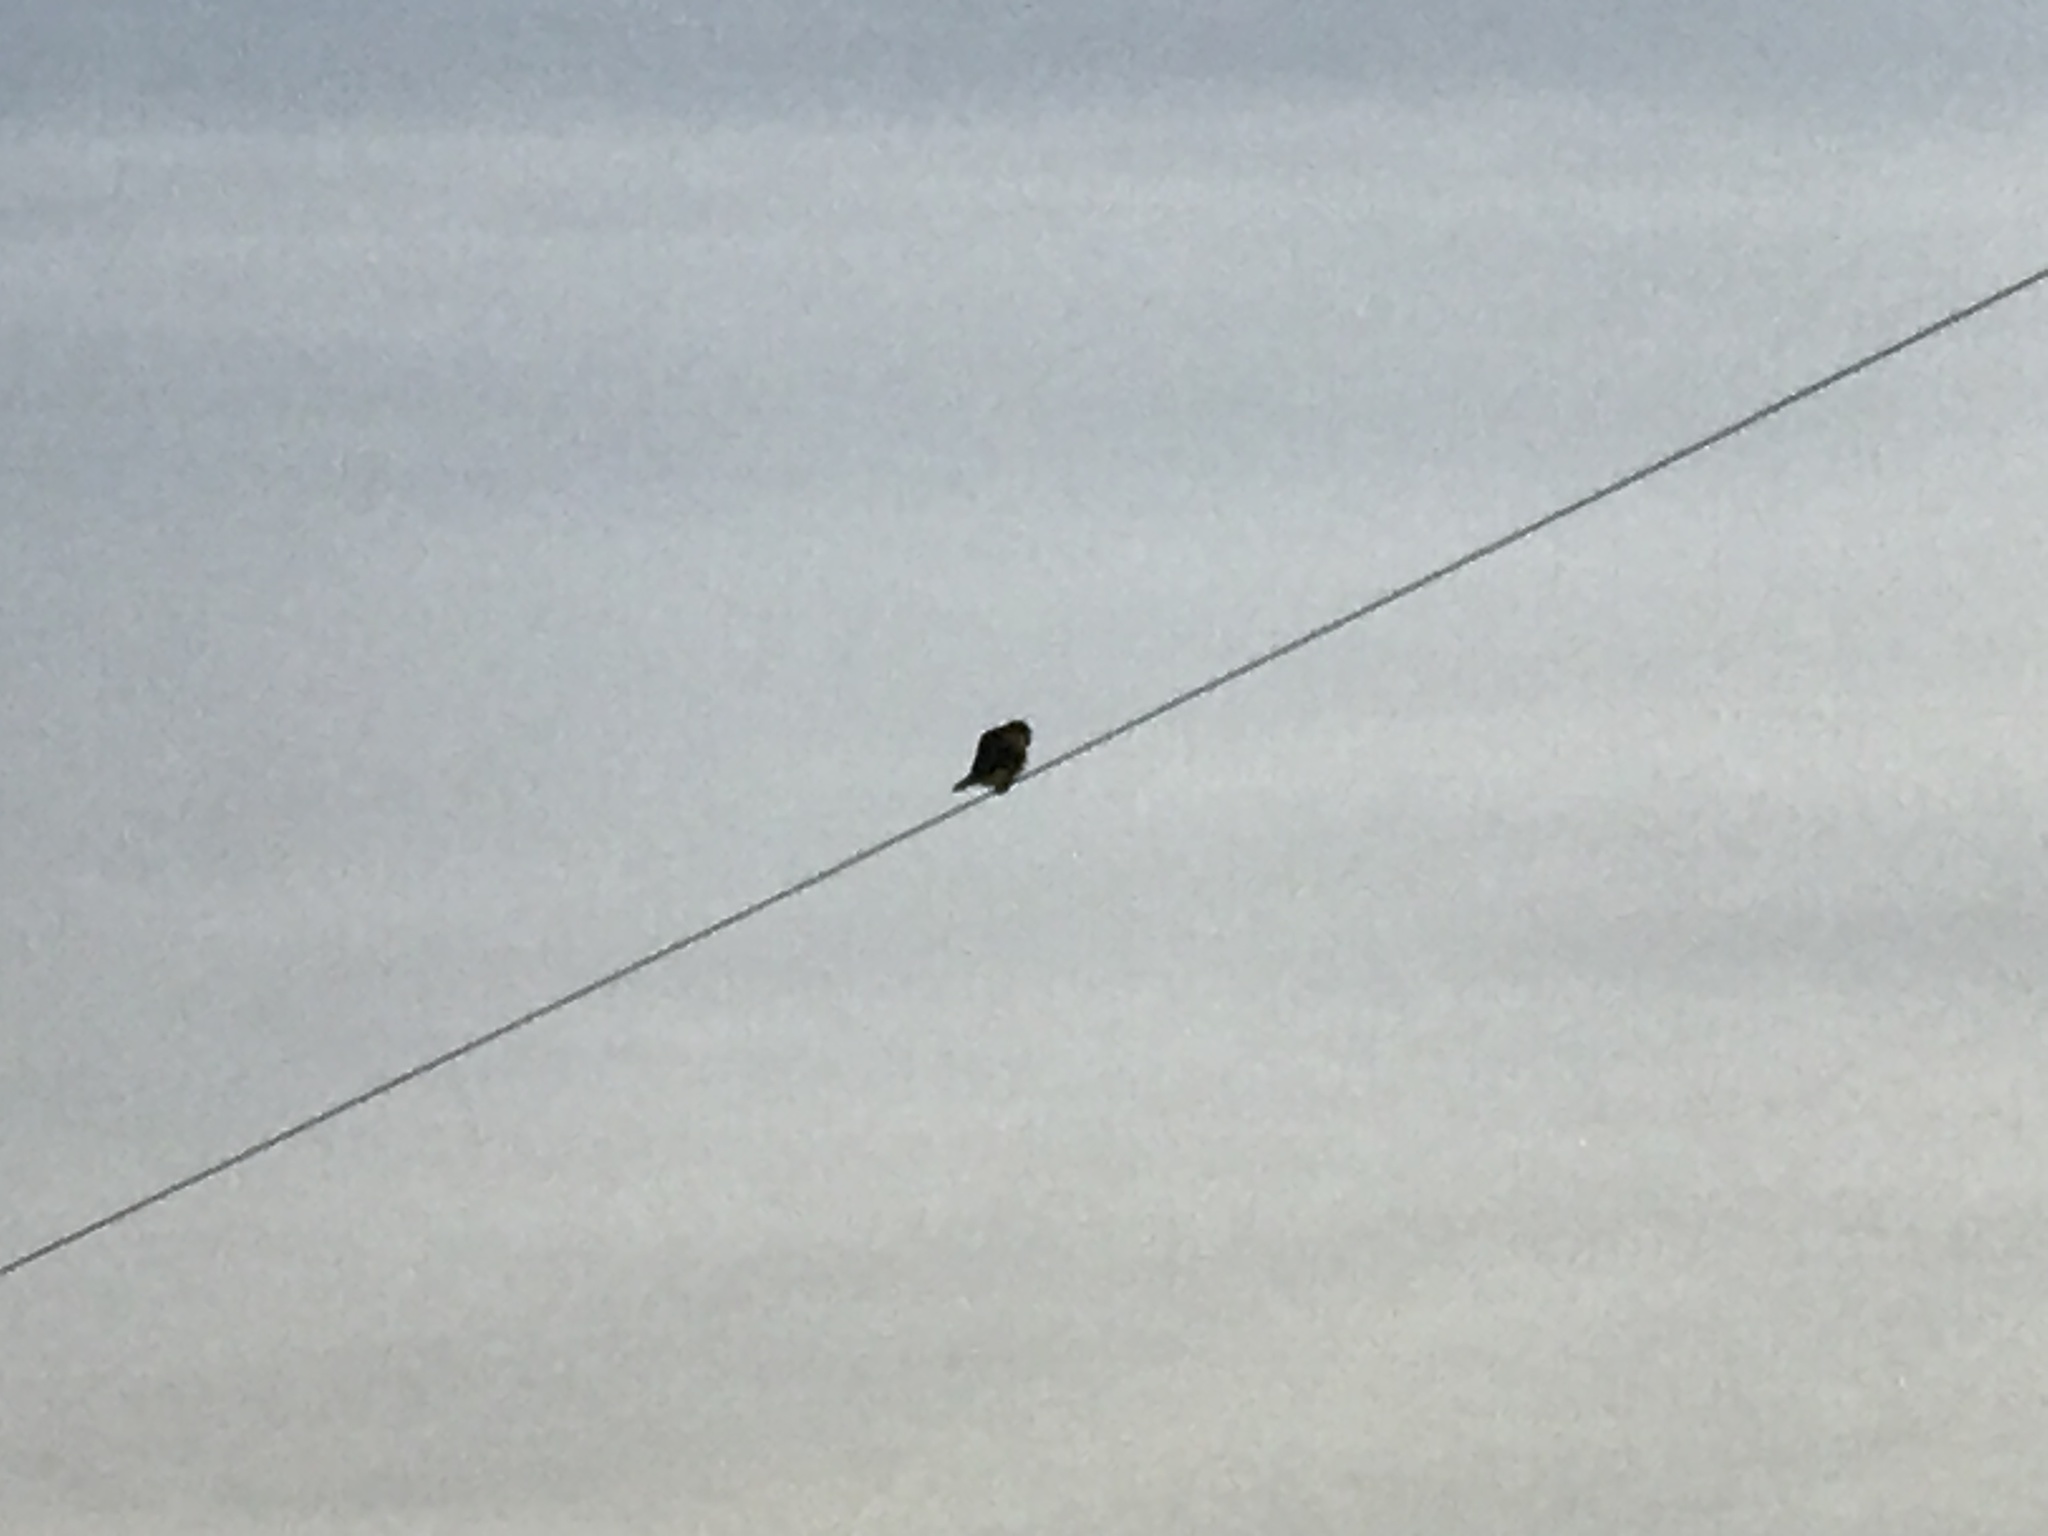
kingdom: Animalia
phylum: Chordata
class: Aves
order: Falconiformes
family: Falconidae
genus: Falco
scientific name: Falco sparverius
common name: American kestrel
